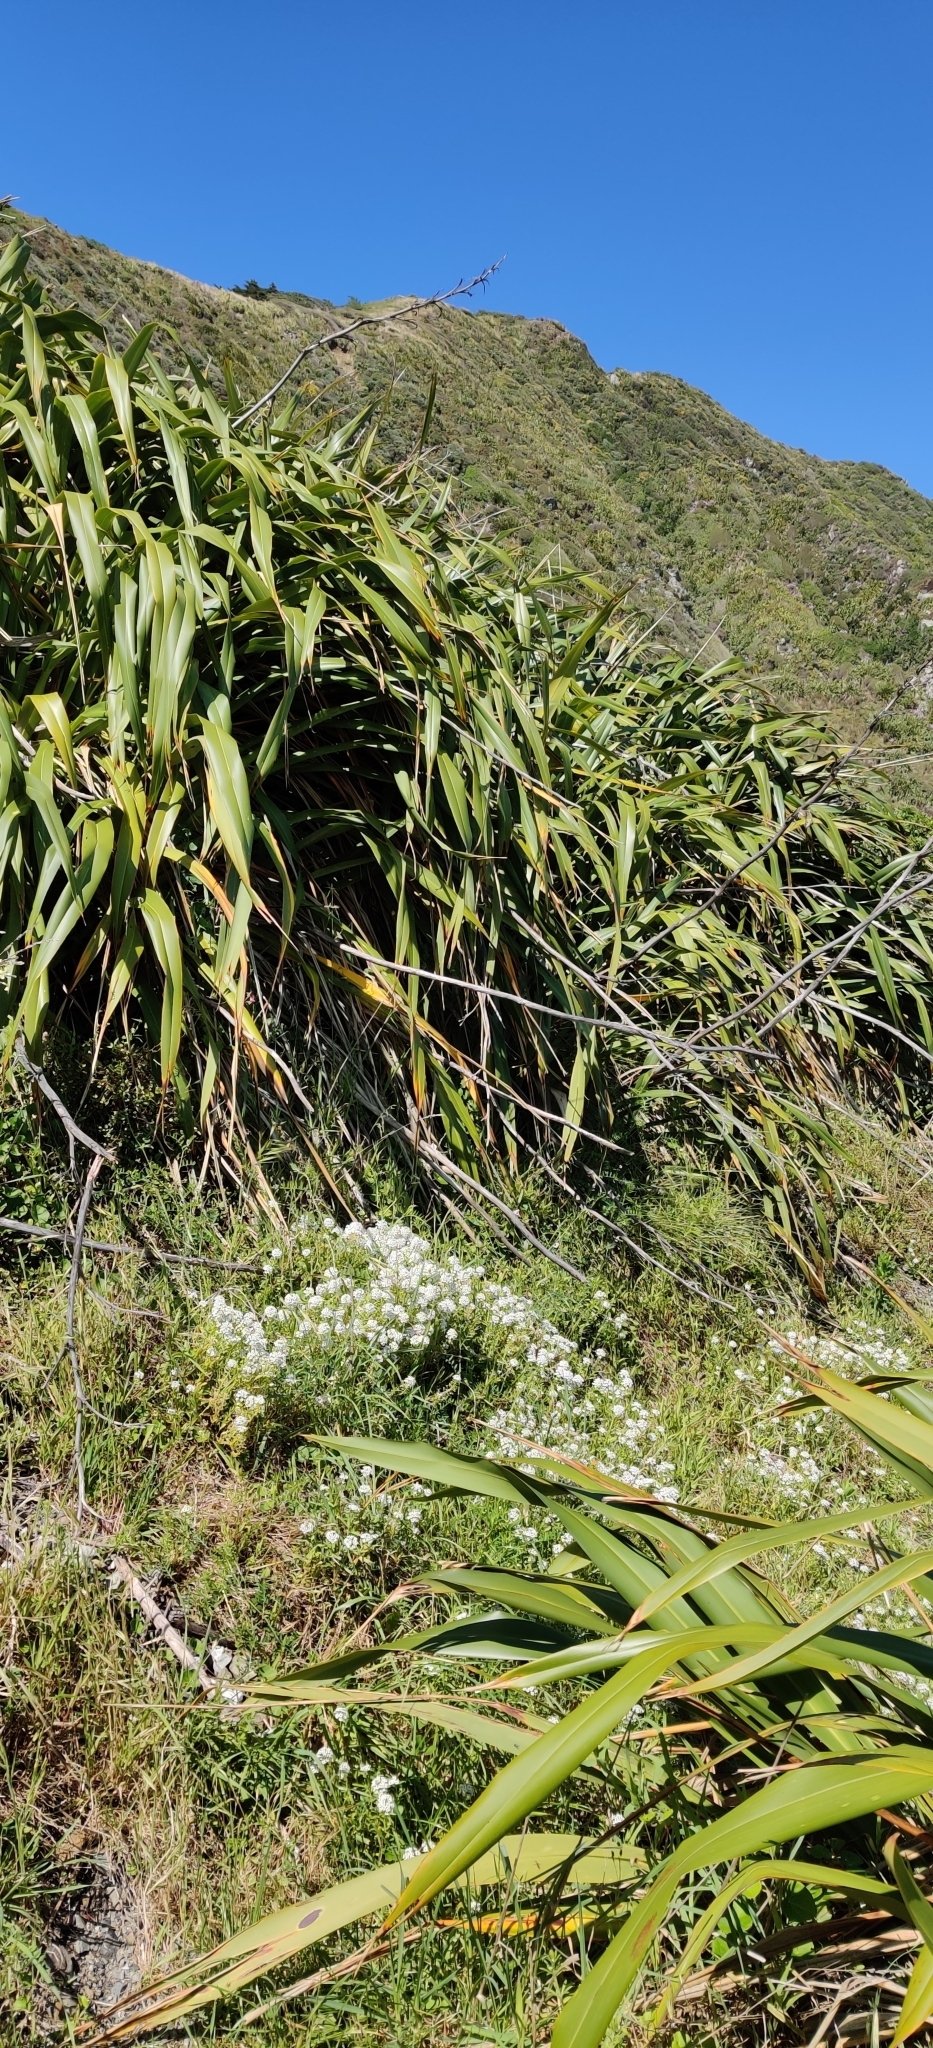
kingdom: Plantae
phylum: Tracheophyta
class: Liliopsida
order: Asparagales
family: Asphodelaceae
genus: Phormium
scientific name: Phormium tenax
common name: New zealand flax
